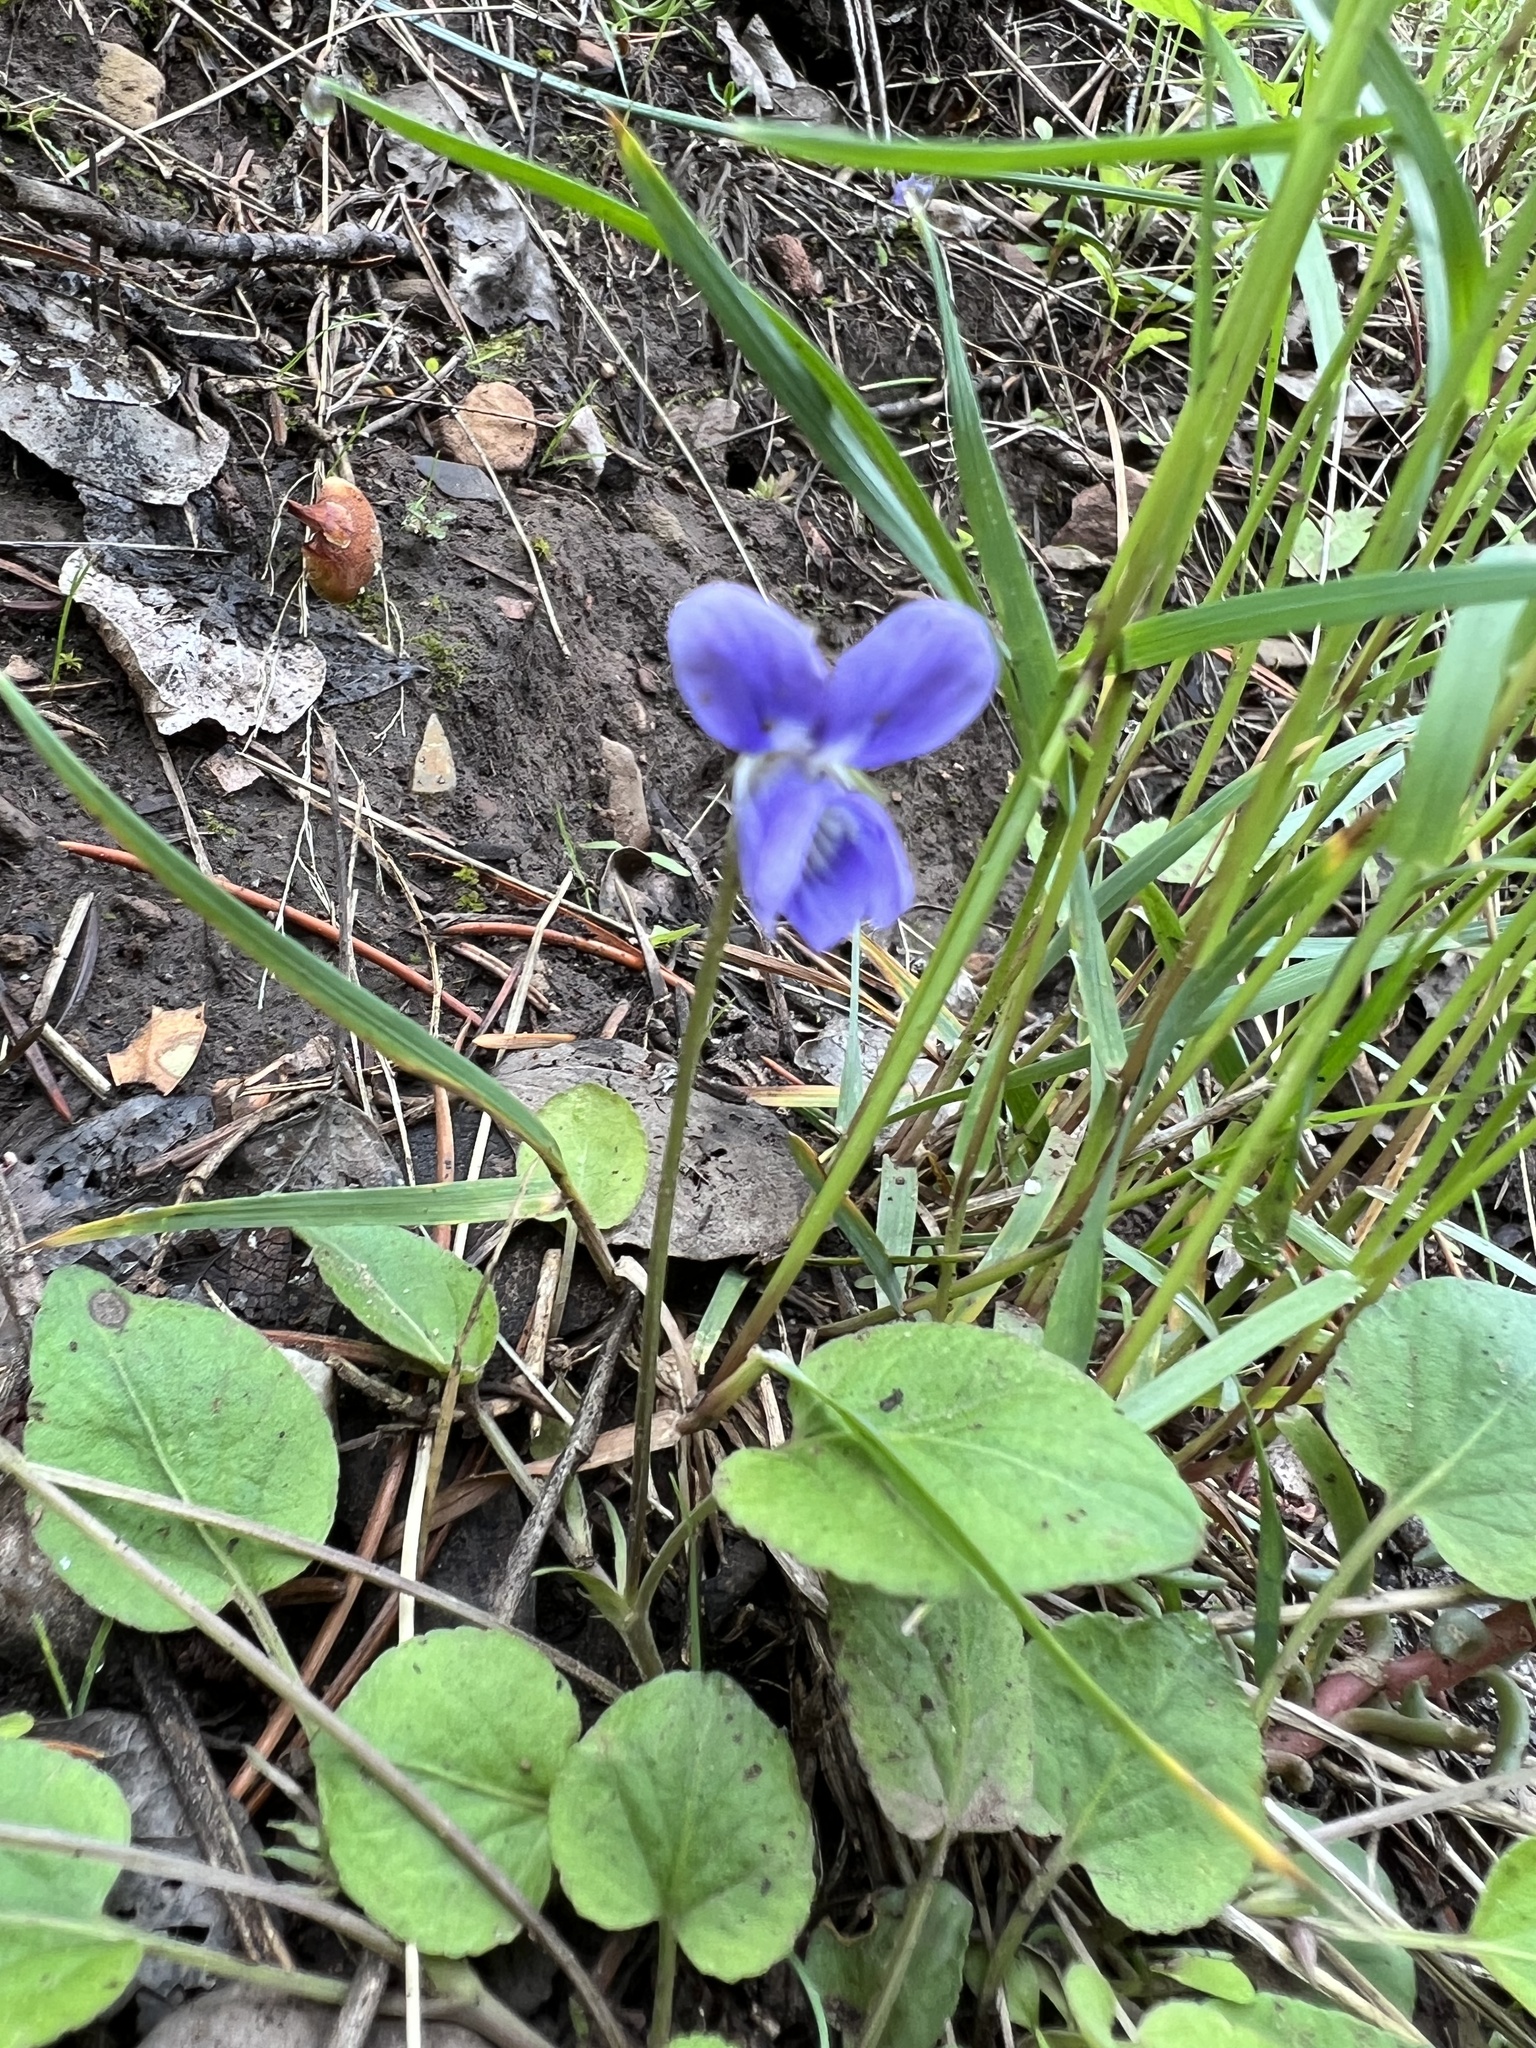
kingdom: Plantae
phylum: Tracheophyta
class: Magnoliopsida
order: Malpighiales
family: Violaceae
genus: Viola
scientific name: Viola adunca
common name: Sand violet
